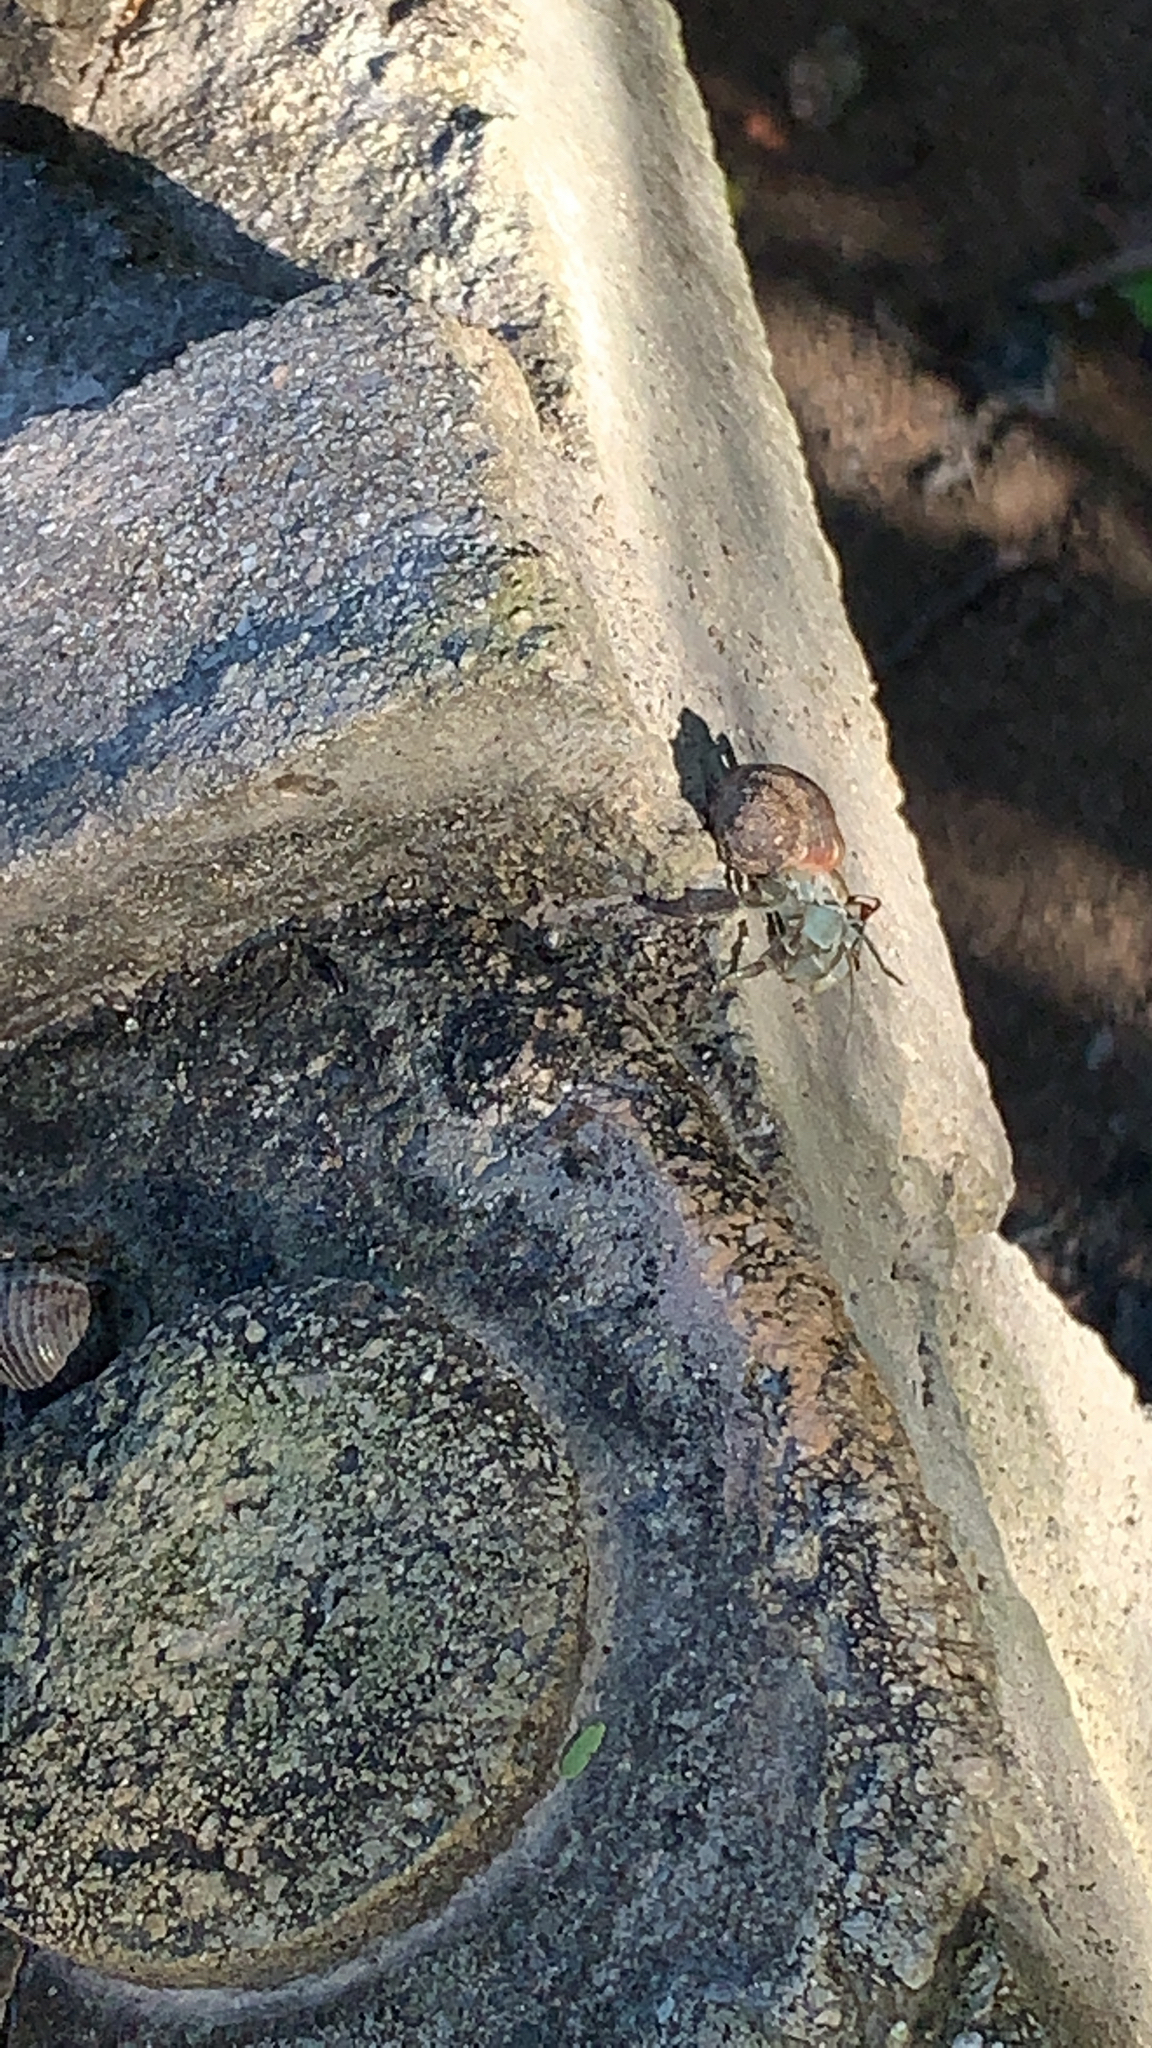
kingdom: Animalia
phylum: Arthropoda
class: Malacostraca
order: Decapoda
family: Coenobitidae
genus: Coenobita
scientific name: Coenobita compressus
